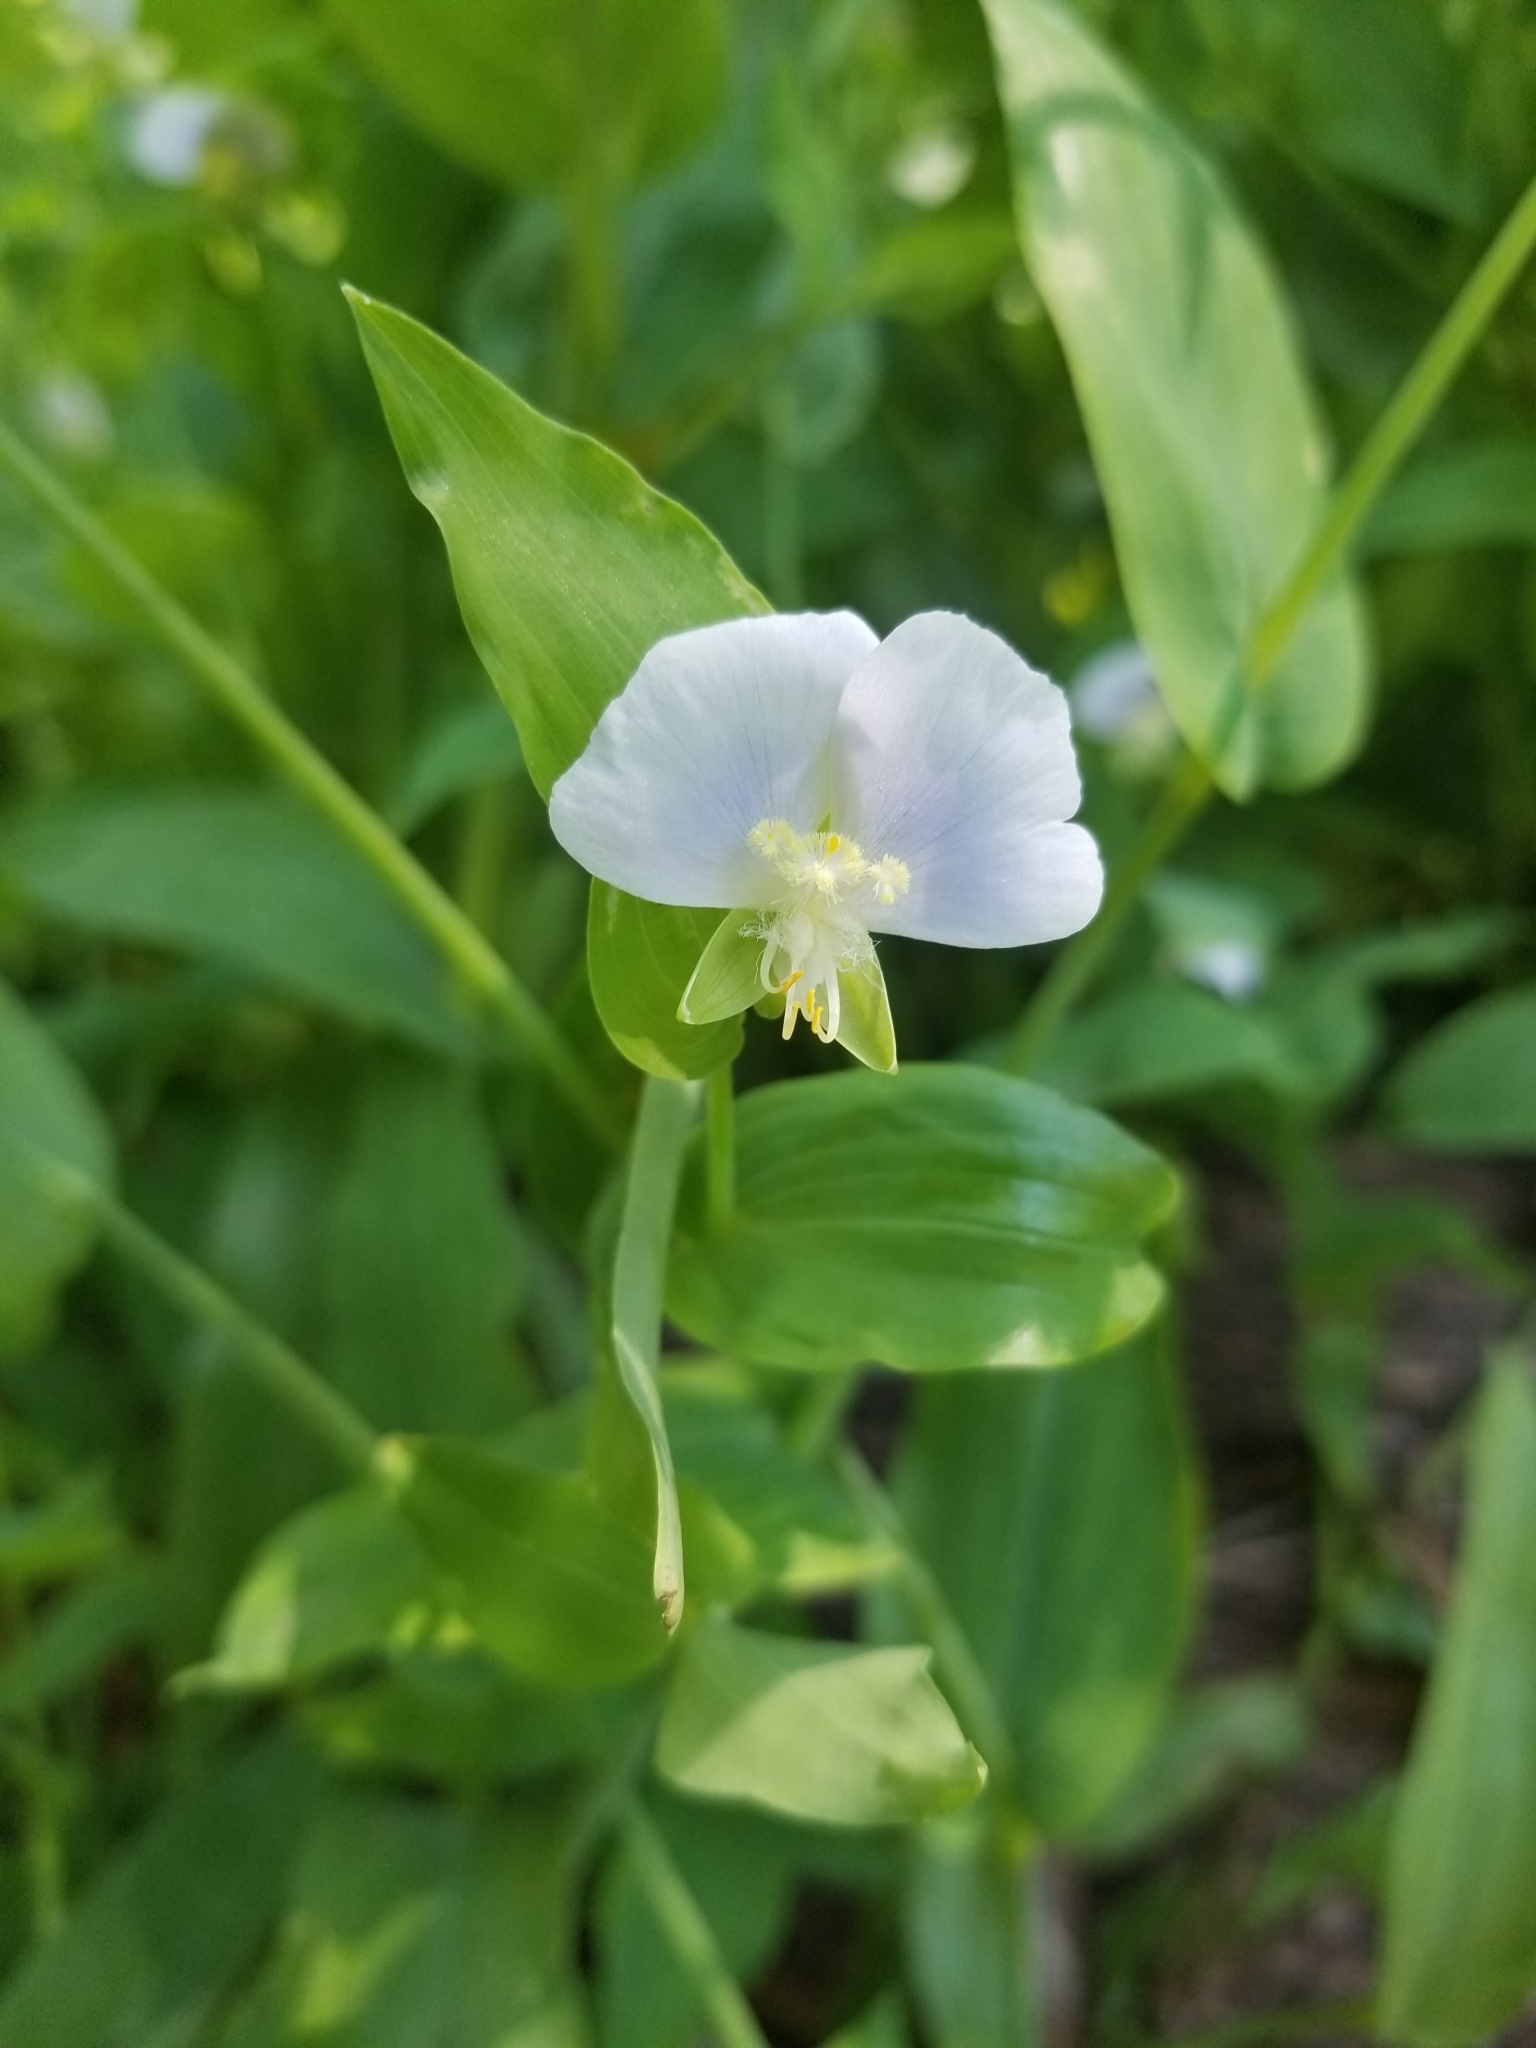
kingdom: Plantae
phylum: Tracheophyta
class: Liliopsida
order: Commelinales
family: Commelinaceae
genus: Tinantia
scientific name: Tinantia anomala
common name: False dayflower
